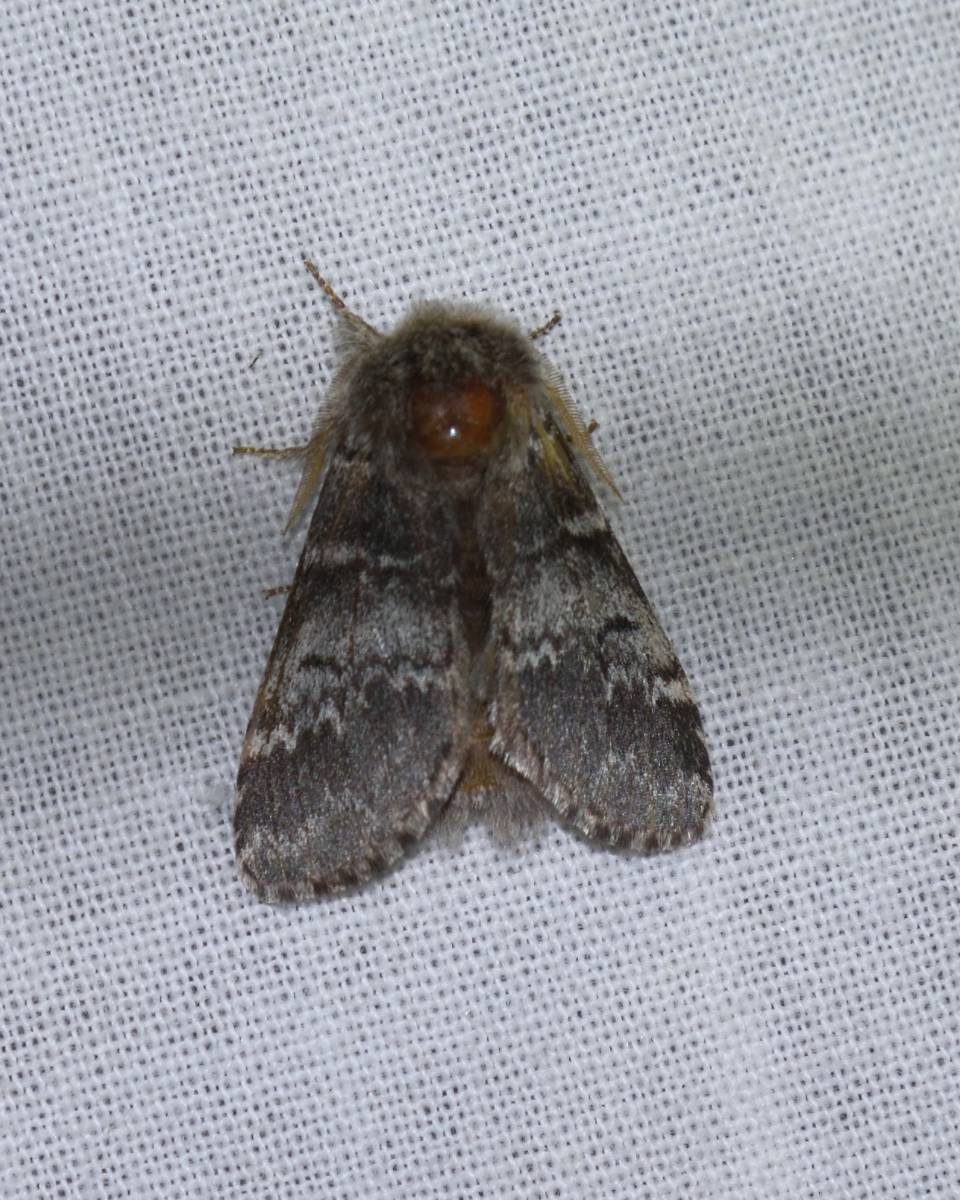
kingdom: Animalia
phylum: Arthropoda
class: Insecta
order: Lepidoptera
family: Notodontidae
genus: Drymonia
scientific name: Drymonia ruficornis
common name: Lunar marbled brown
